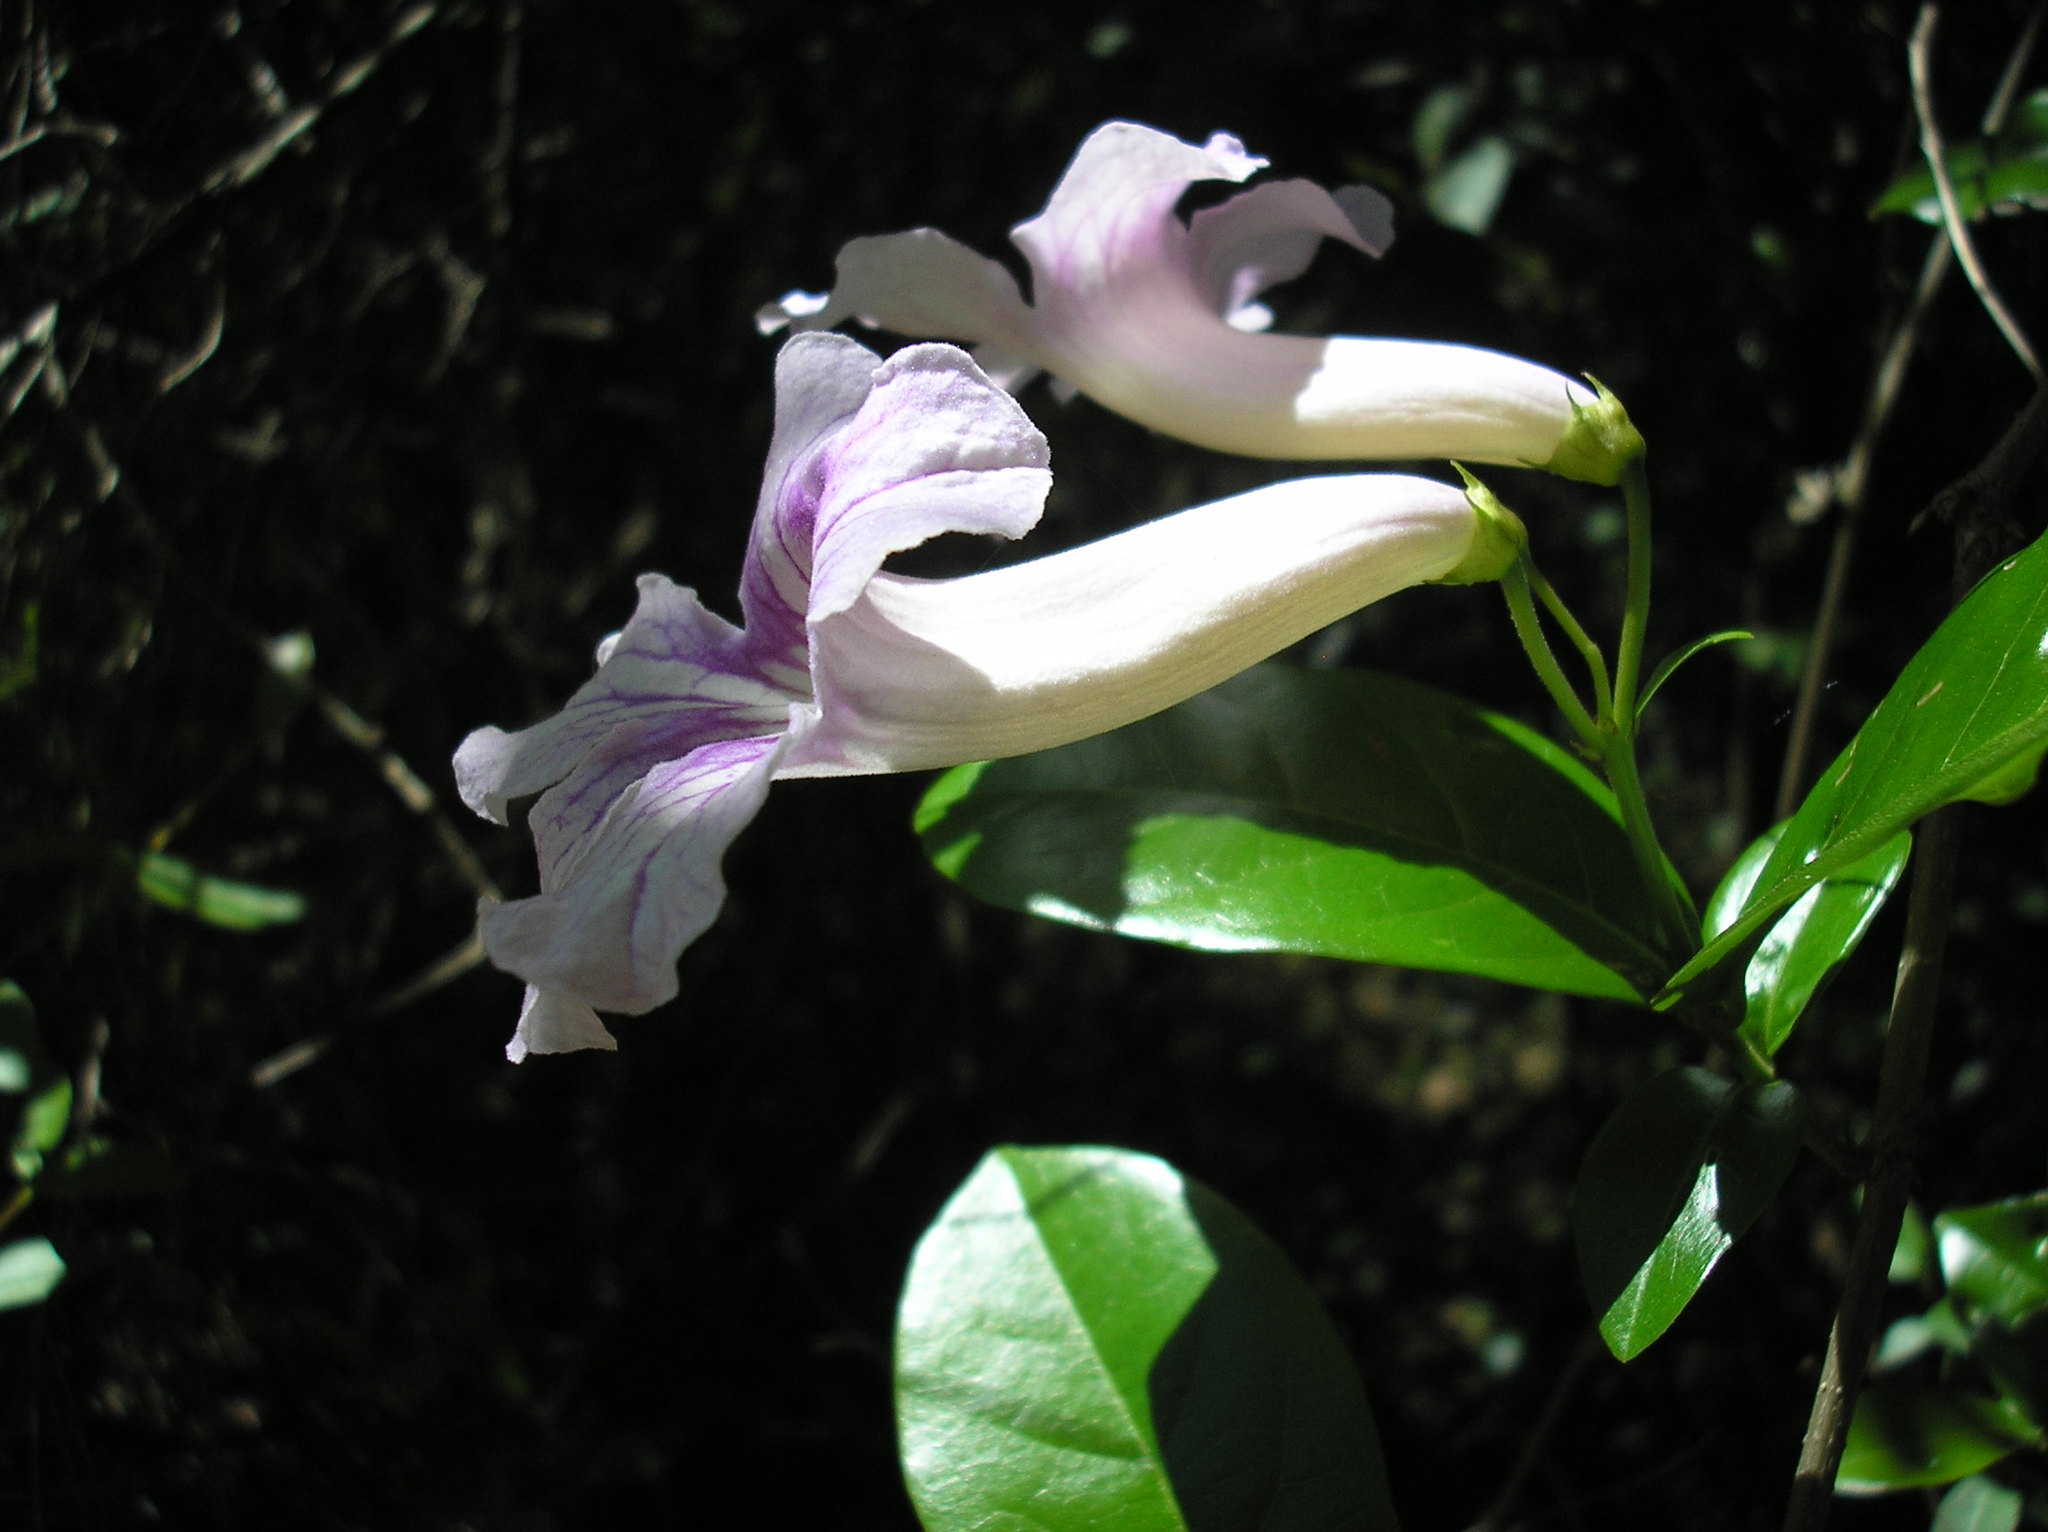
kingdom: Plantae
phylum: Tracheophyta
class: Magnoliopsida
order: Lamiales
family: Bignoniaceae
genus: Bignonia
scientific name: Bignonia callistegioides
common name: Argentine trumpetvine
